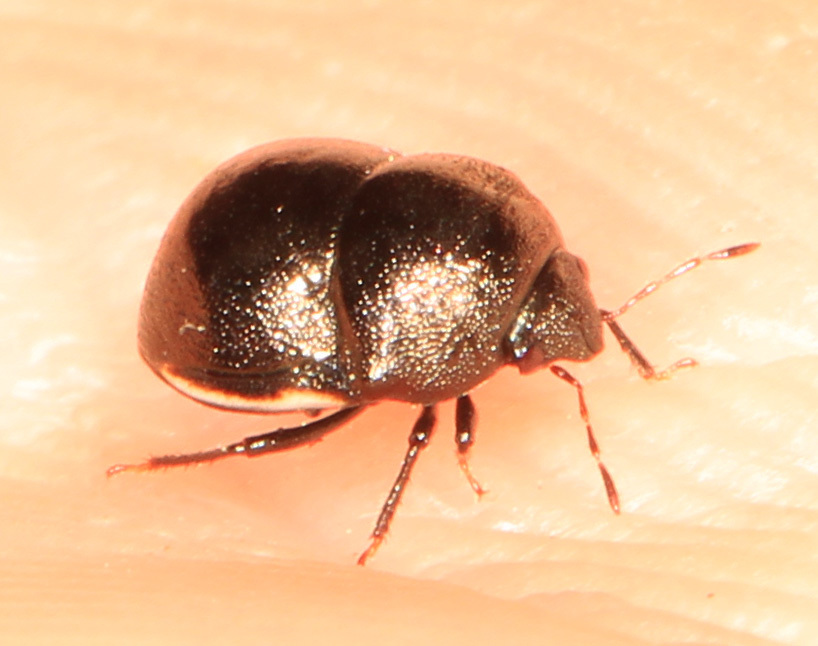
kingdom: Animalia
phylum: Arthropoda
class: Insecta
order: Hemiptera
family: Thyreocoridae
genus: Corimelaena
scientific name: Corimelaena
